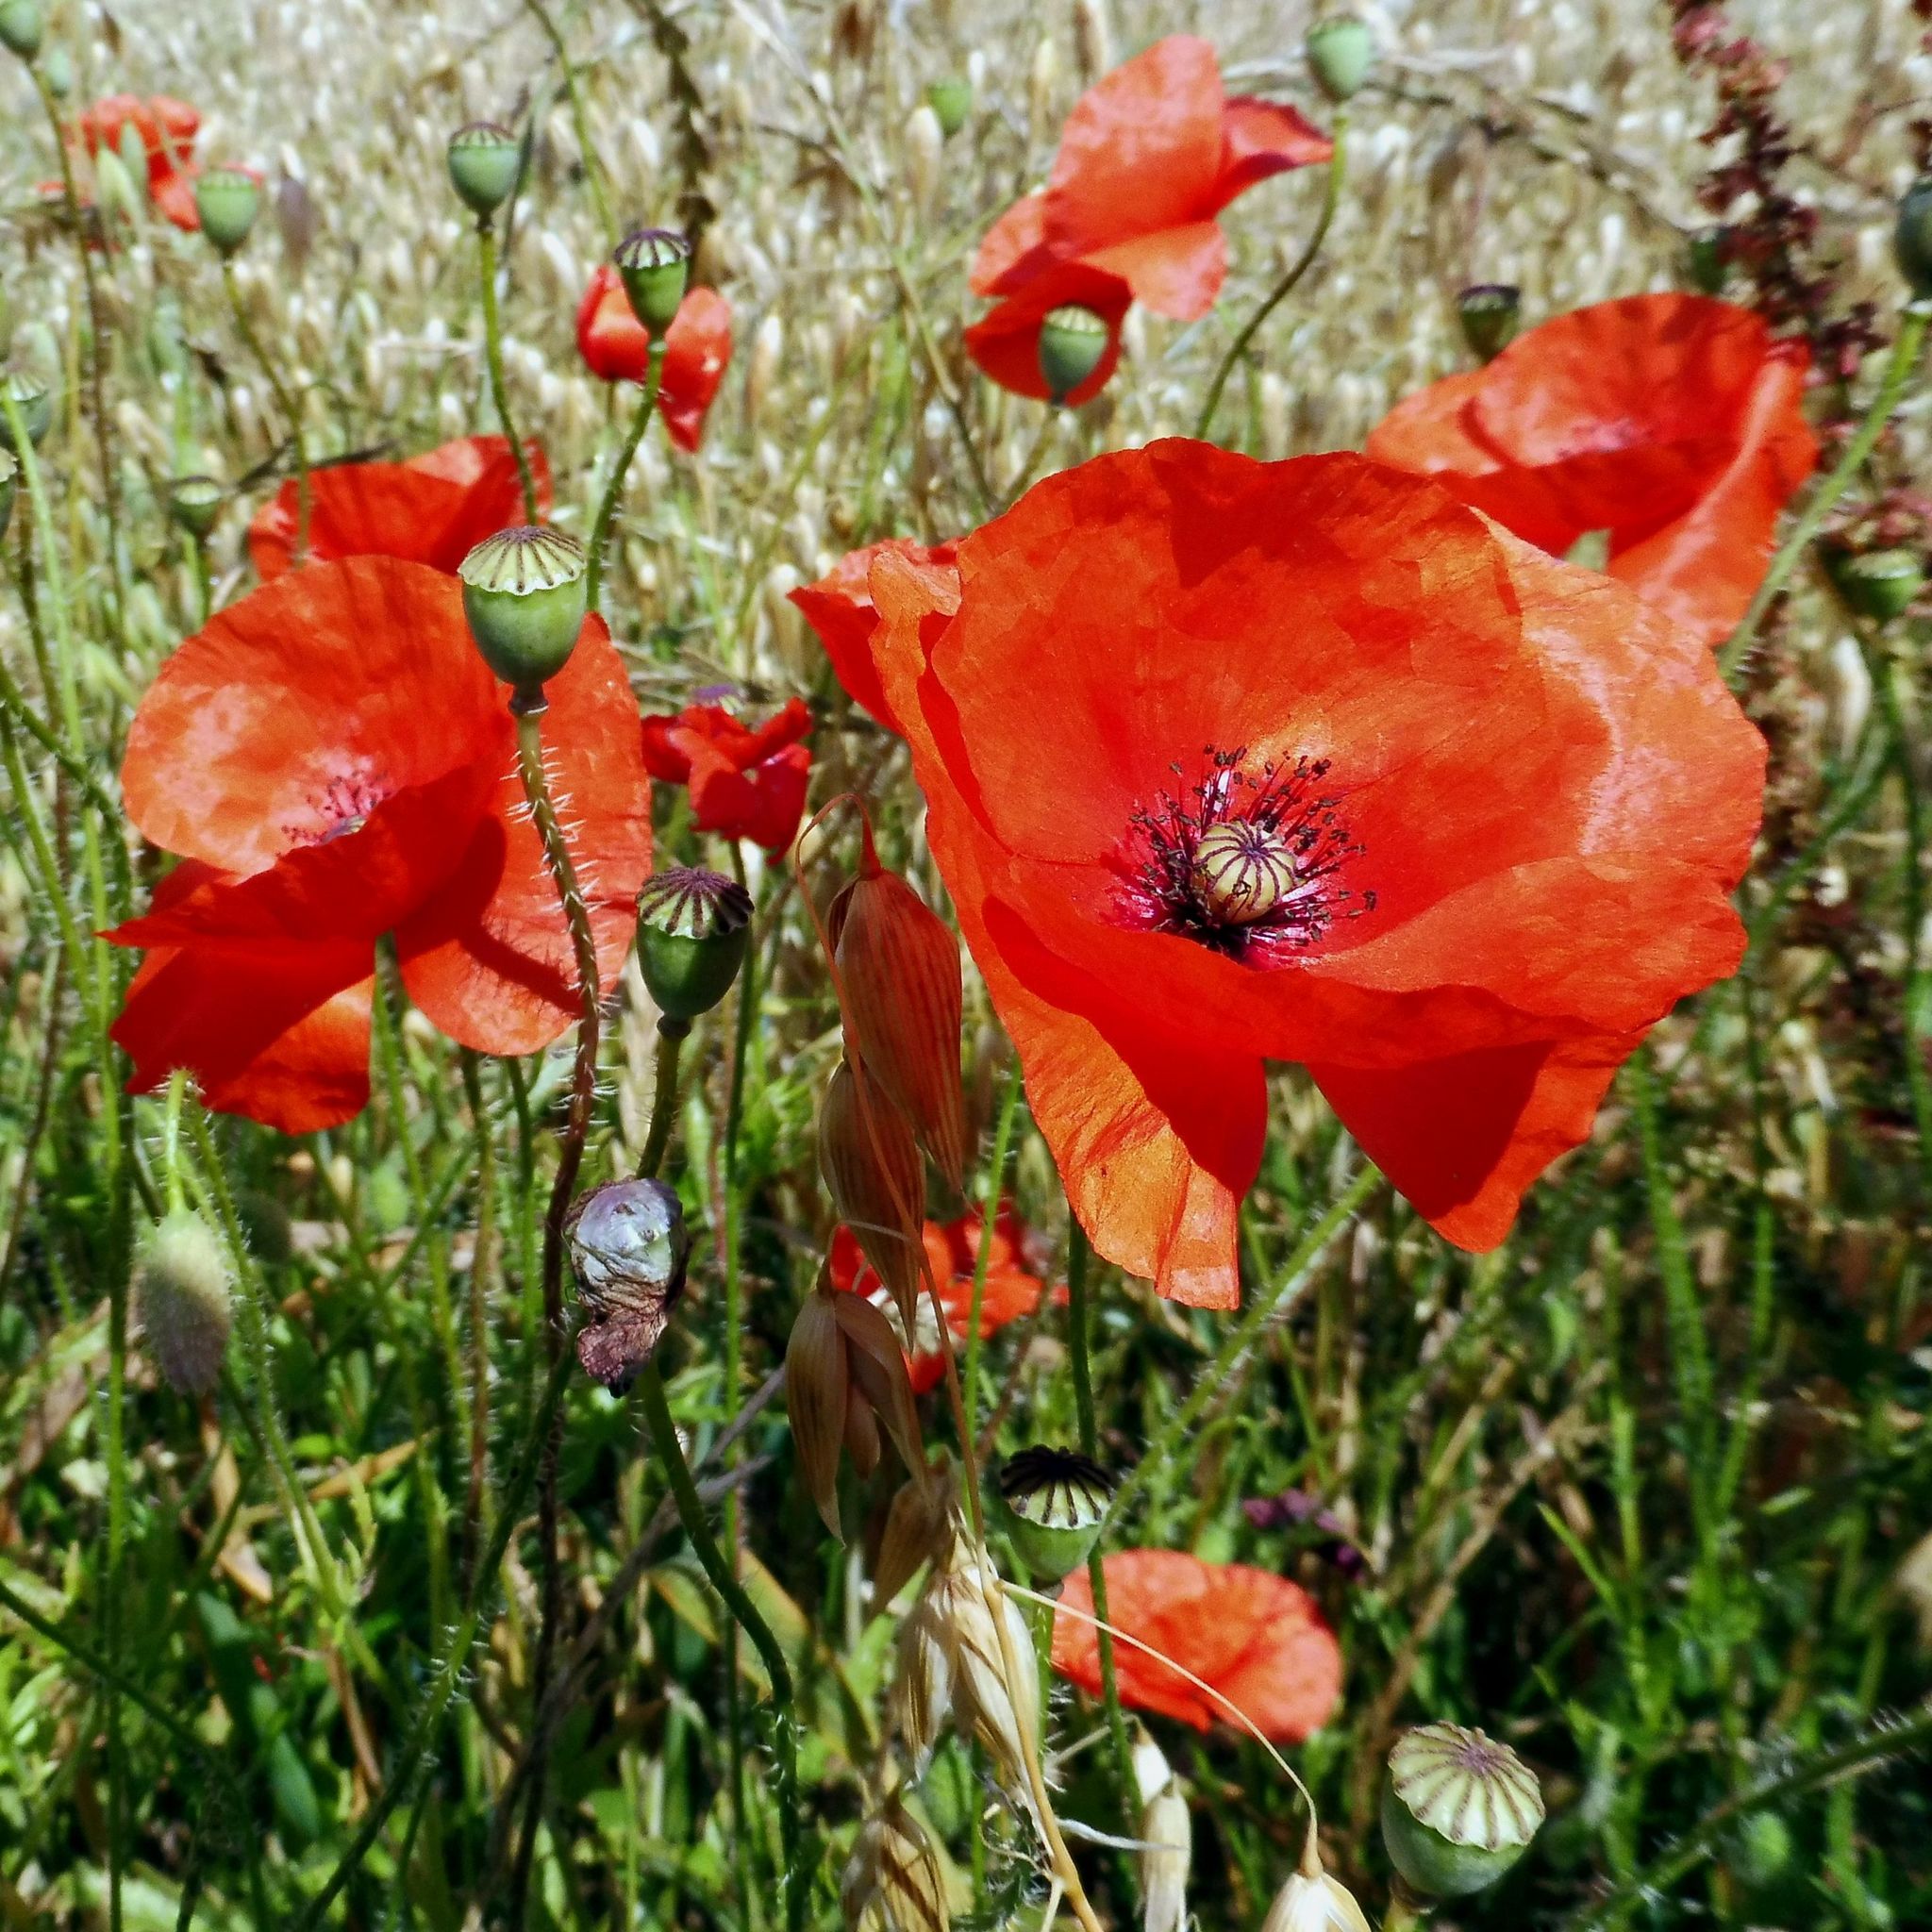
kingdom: Plantae
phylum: Tracheophyta
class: Magnoliopsida
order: Ranunculales
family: Papaveraceae
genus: Papaver
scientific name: Papaver rhoeas
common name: Corn poppy
